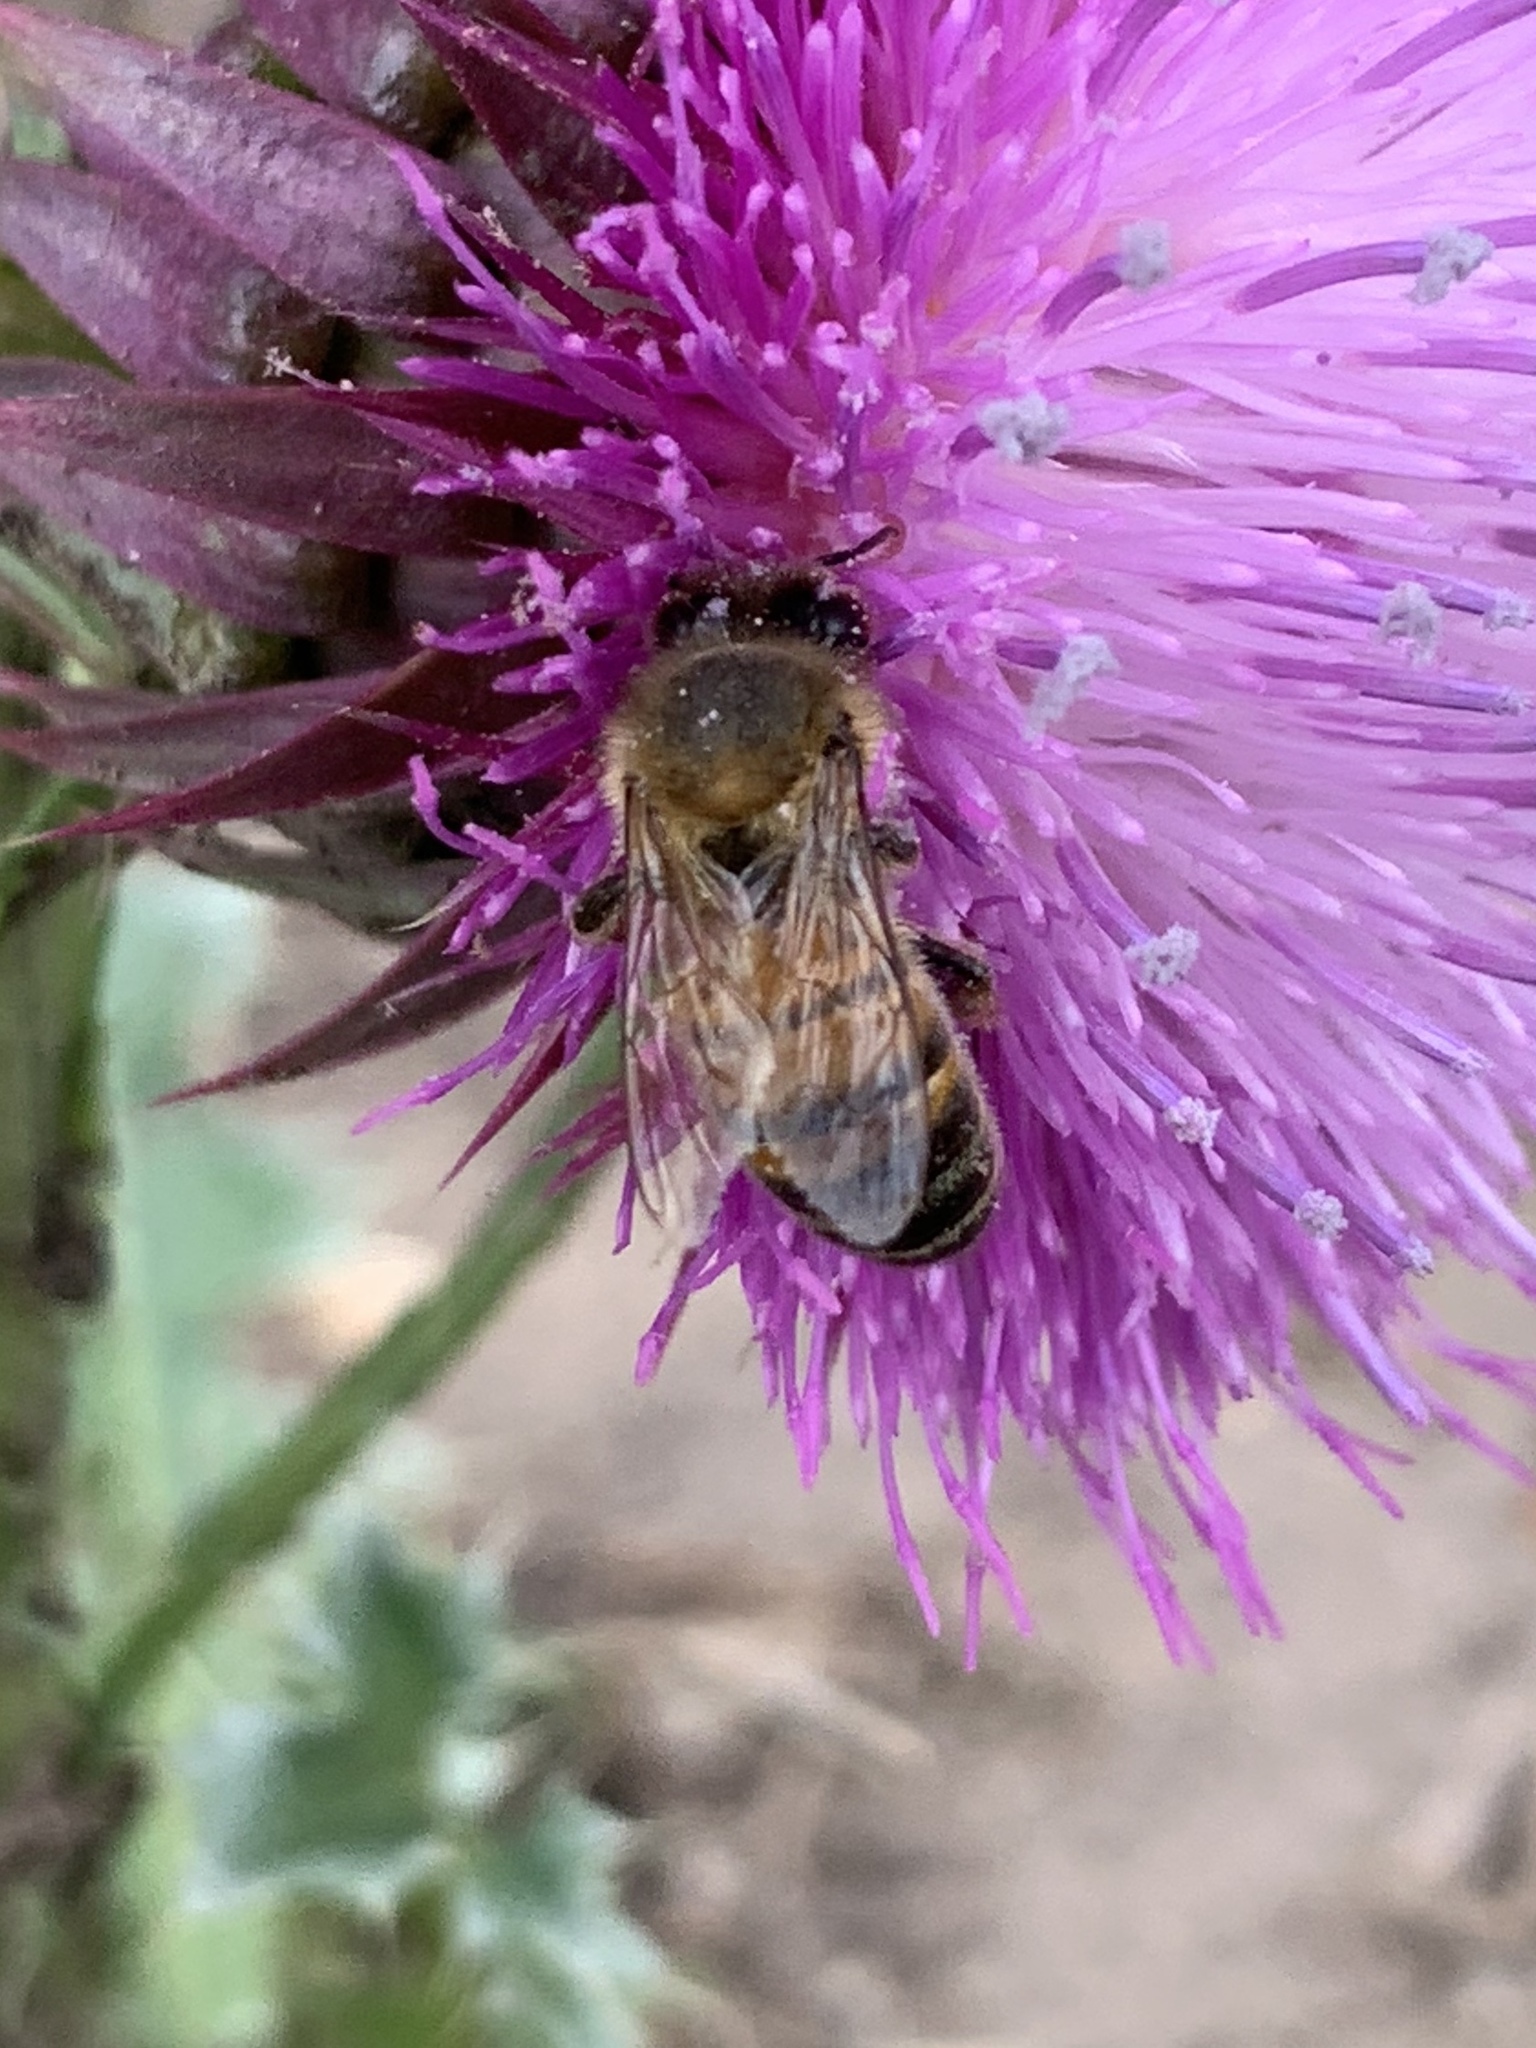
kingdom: Animalia
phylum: Arthropoda
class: Insecta
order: Hymenoptera
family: Apidae
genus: Apis
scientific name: Apis mellifera
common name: Honey bee
